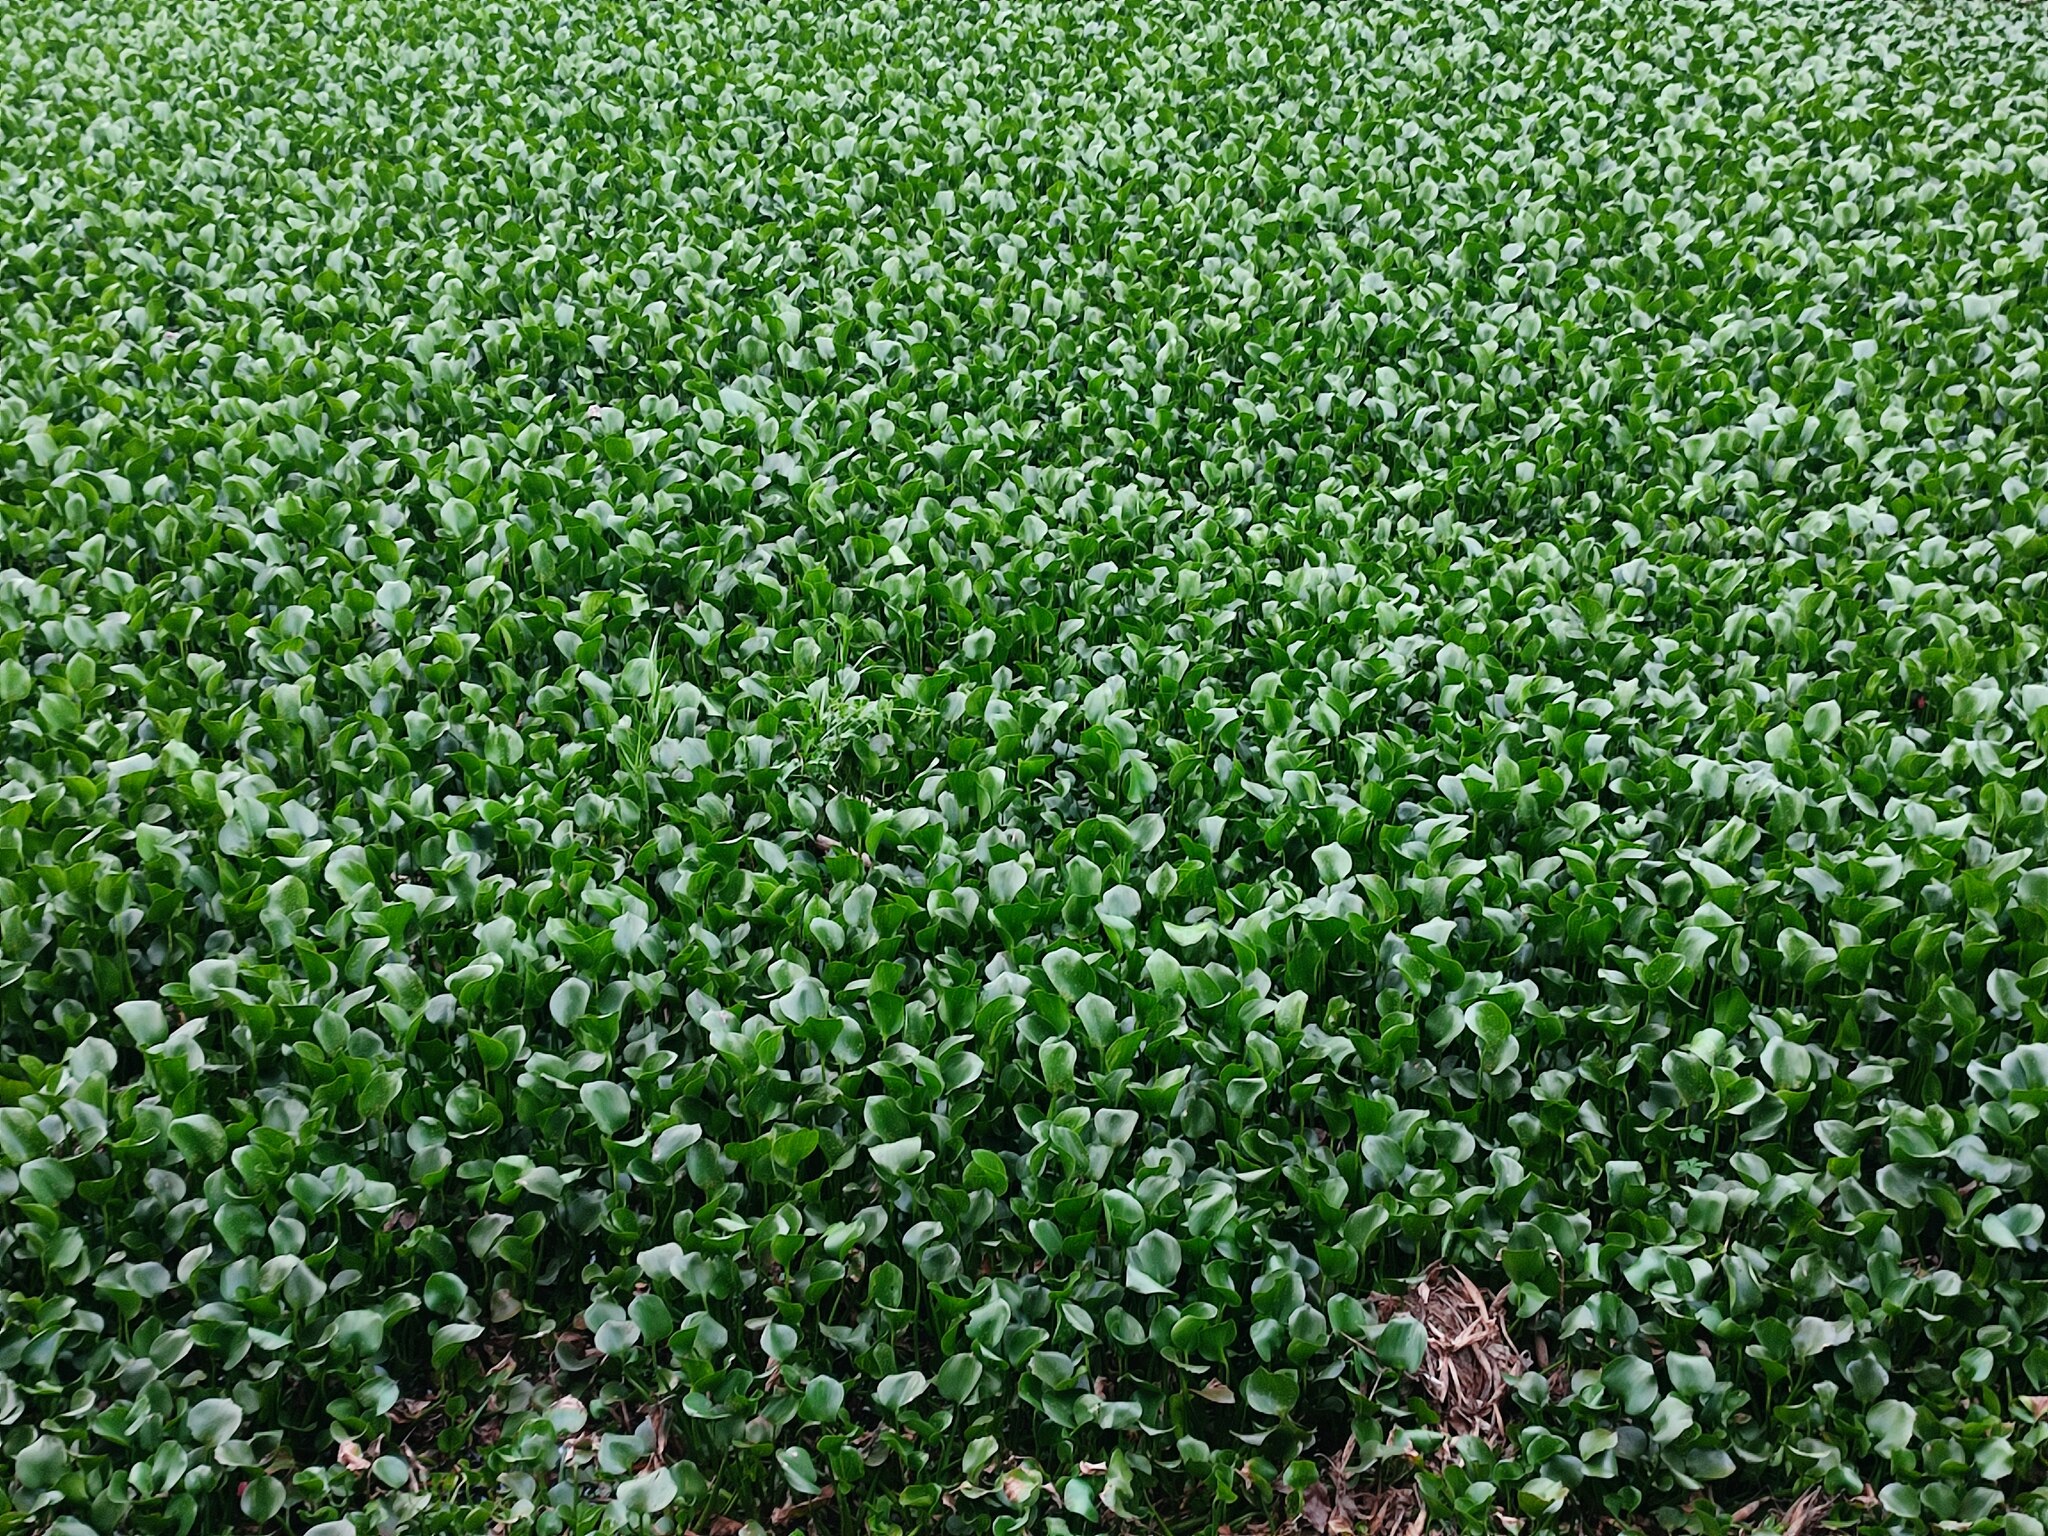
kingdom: Plantae
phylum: Tracheophyta
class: Liliopsida
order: Commelinales
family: Pontederiaceae
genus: Pontederia
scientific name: Pontederia crassipes
